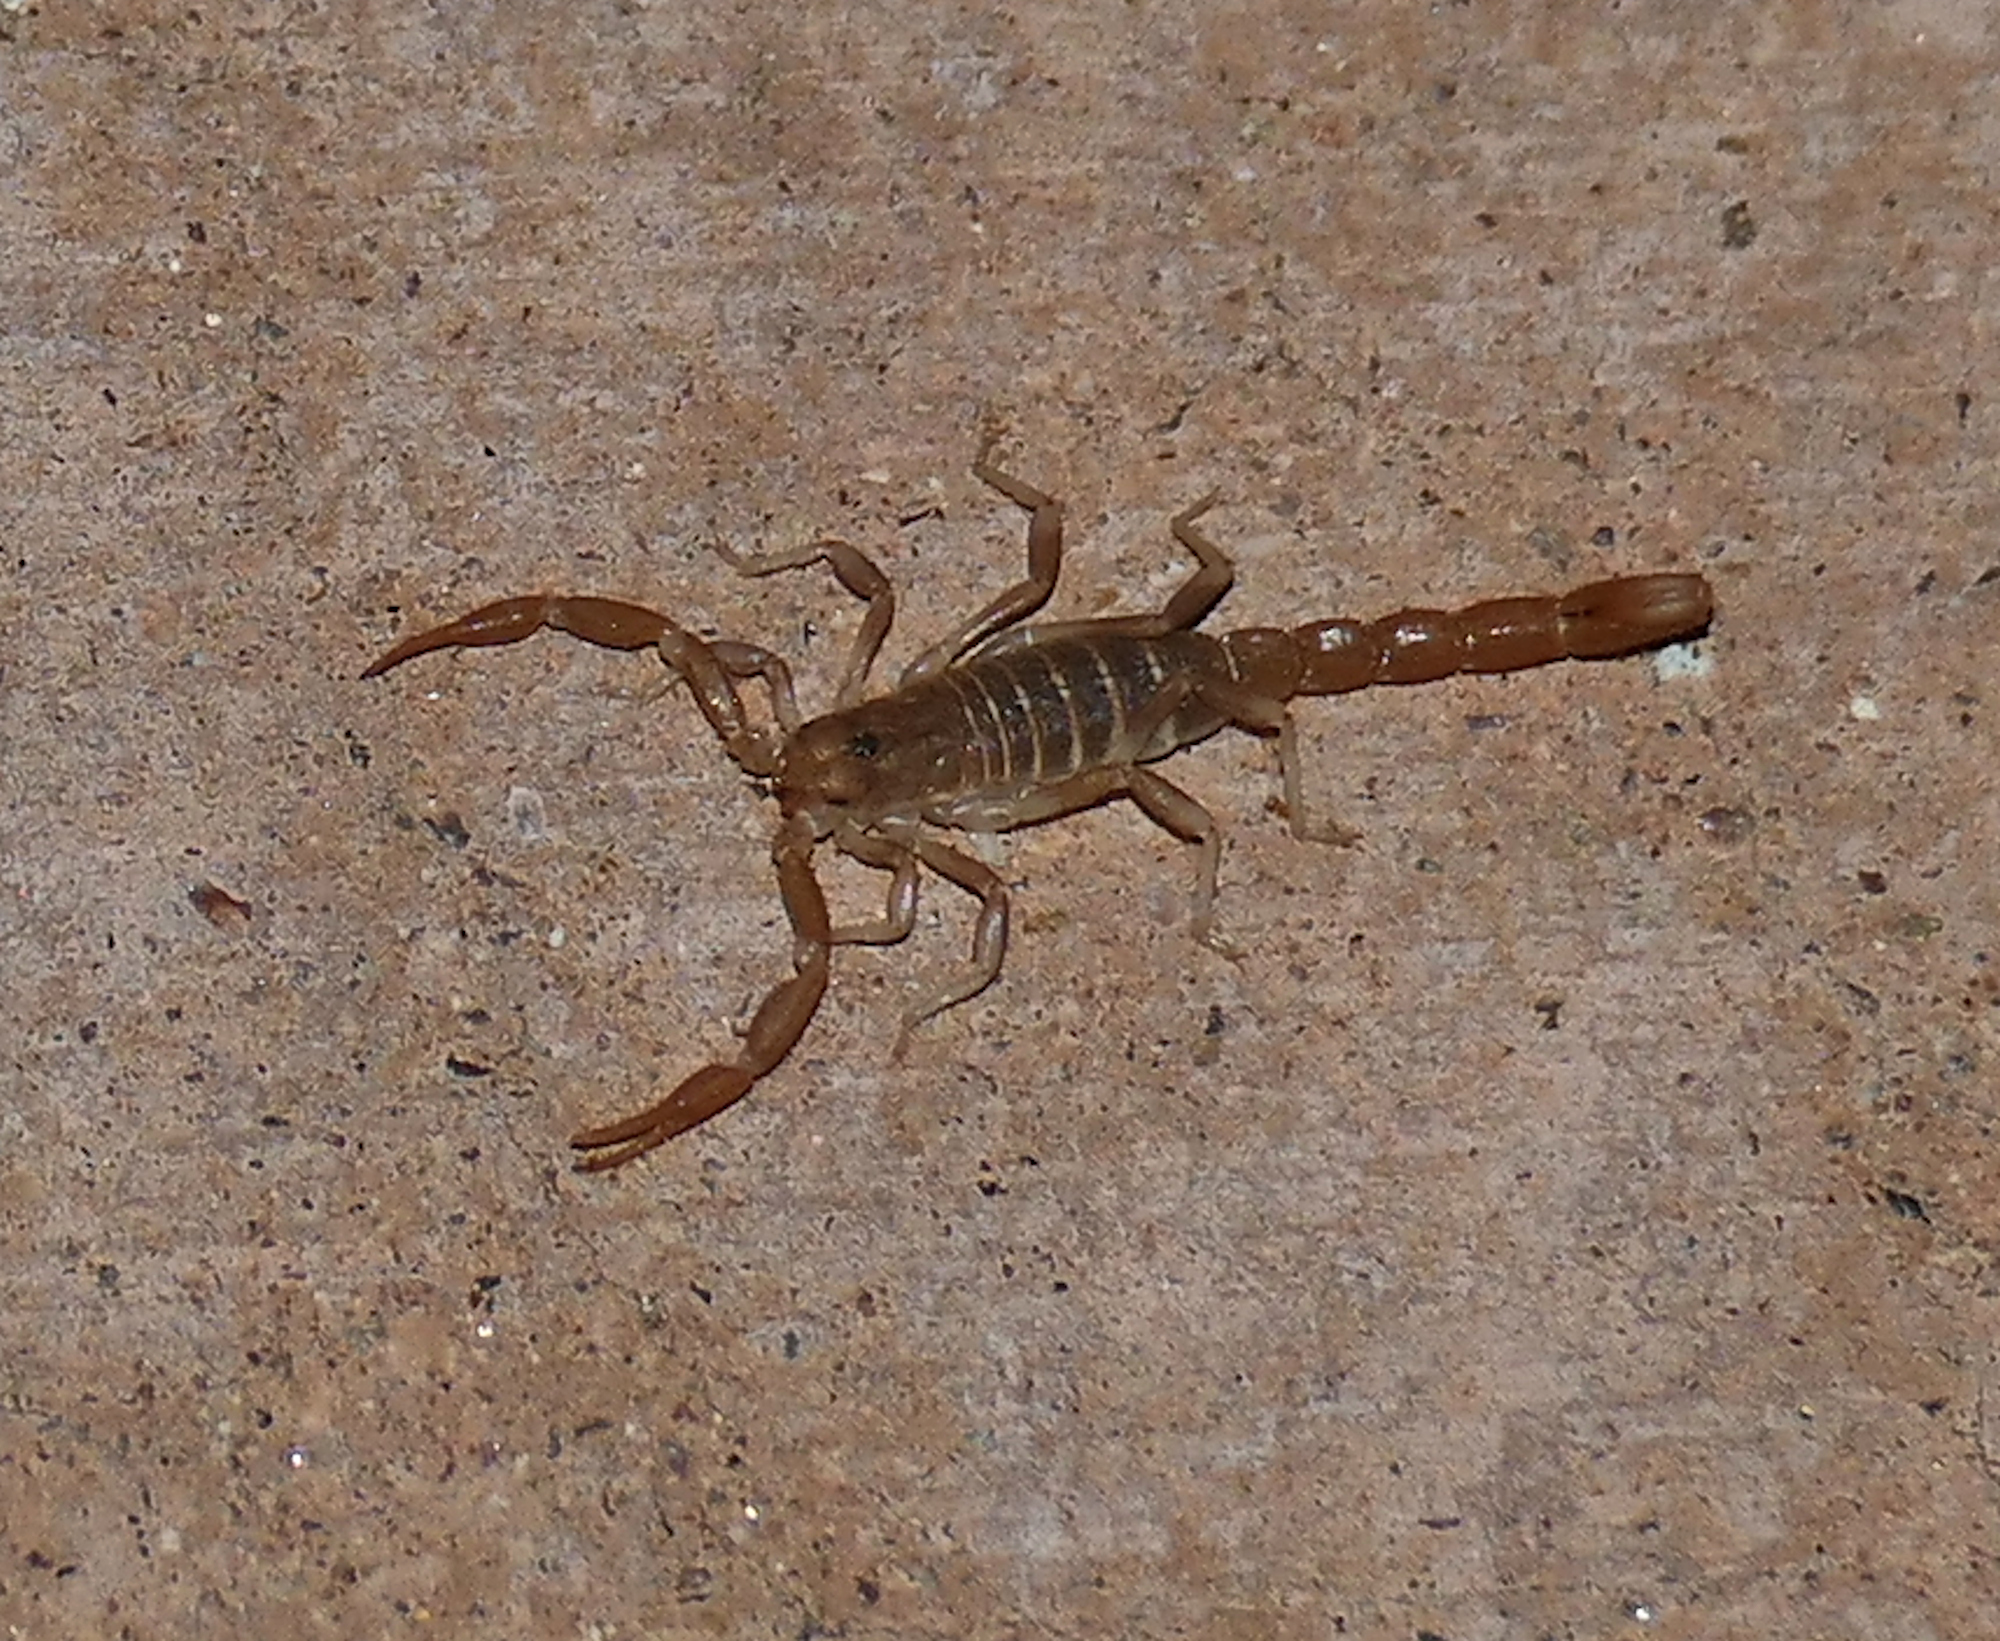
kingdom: Animalia
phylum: Arthropoda
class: Arachnida
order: Scorpiones
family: Vaejovidae
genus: Paravaejovis
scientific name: Paravaejovis confusus
